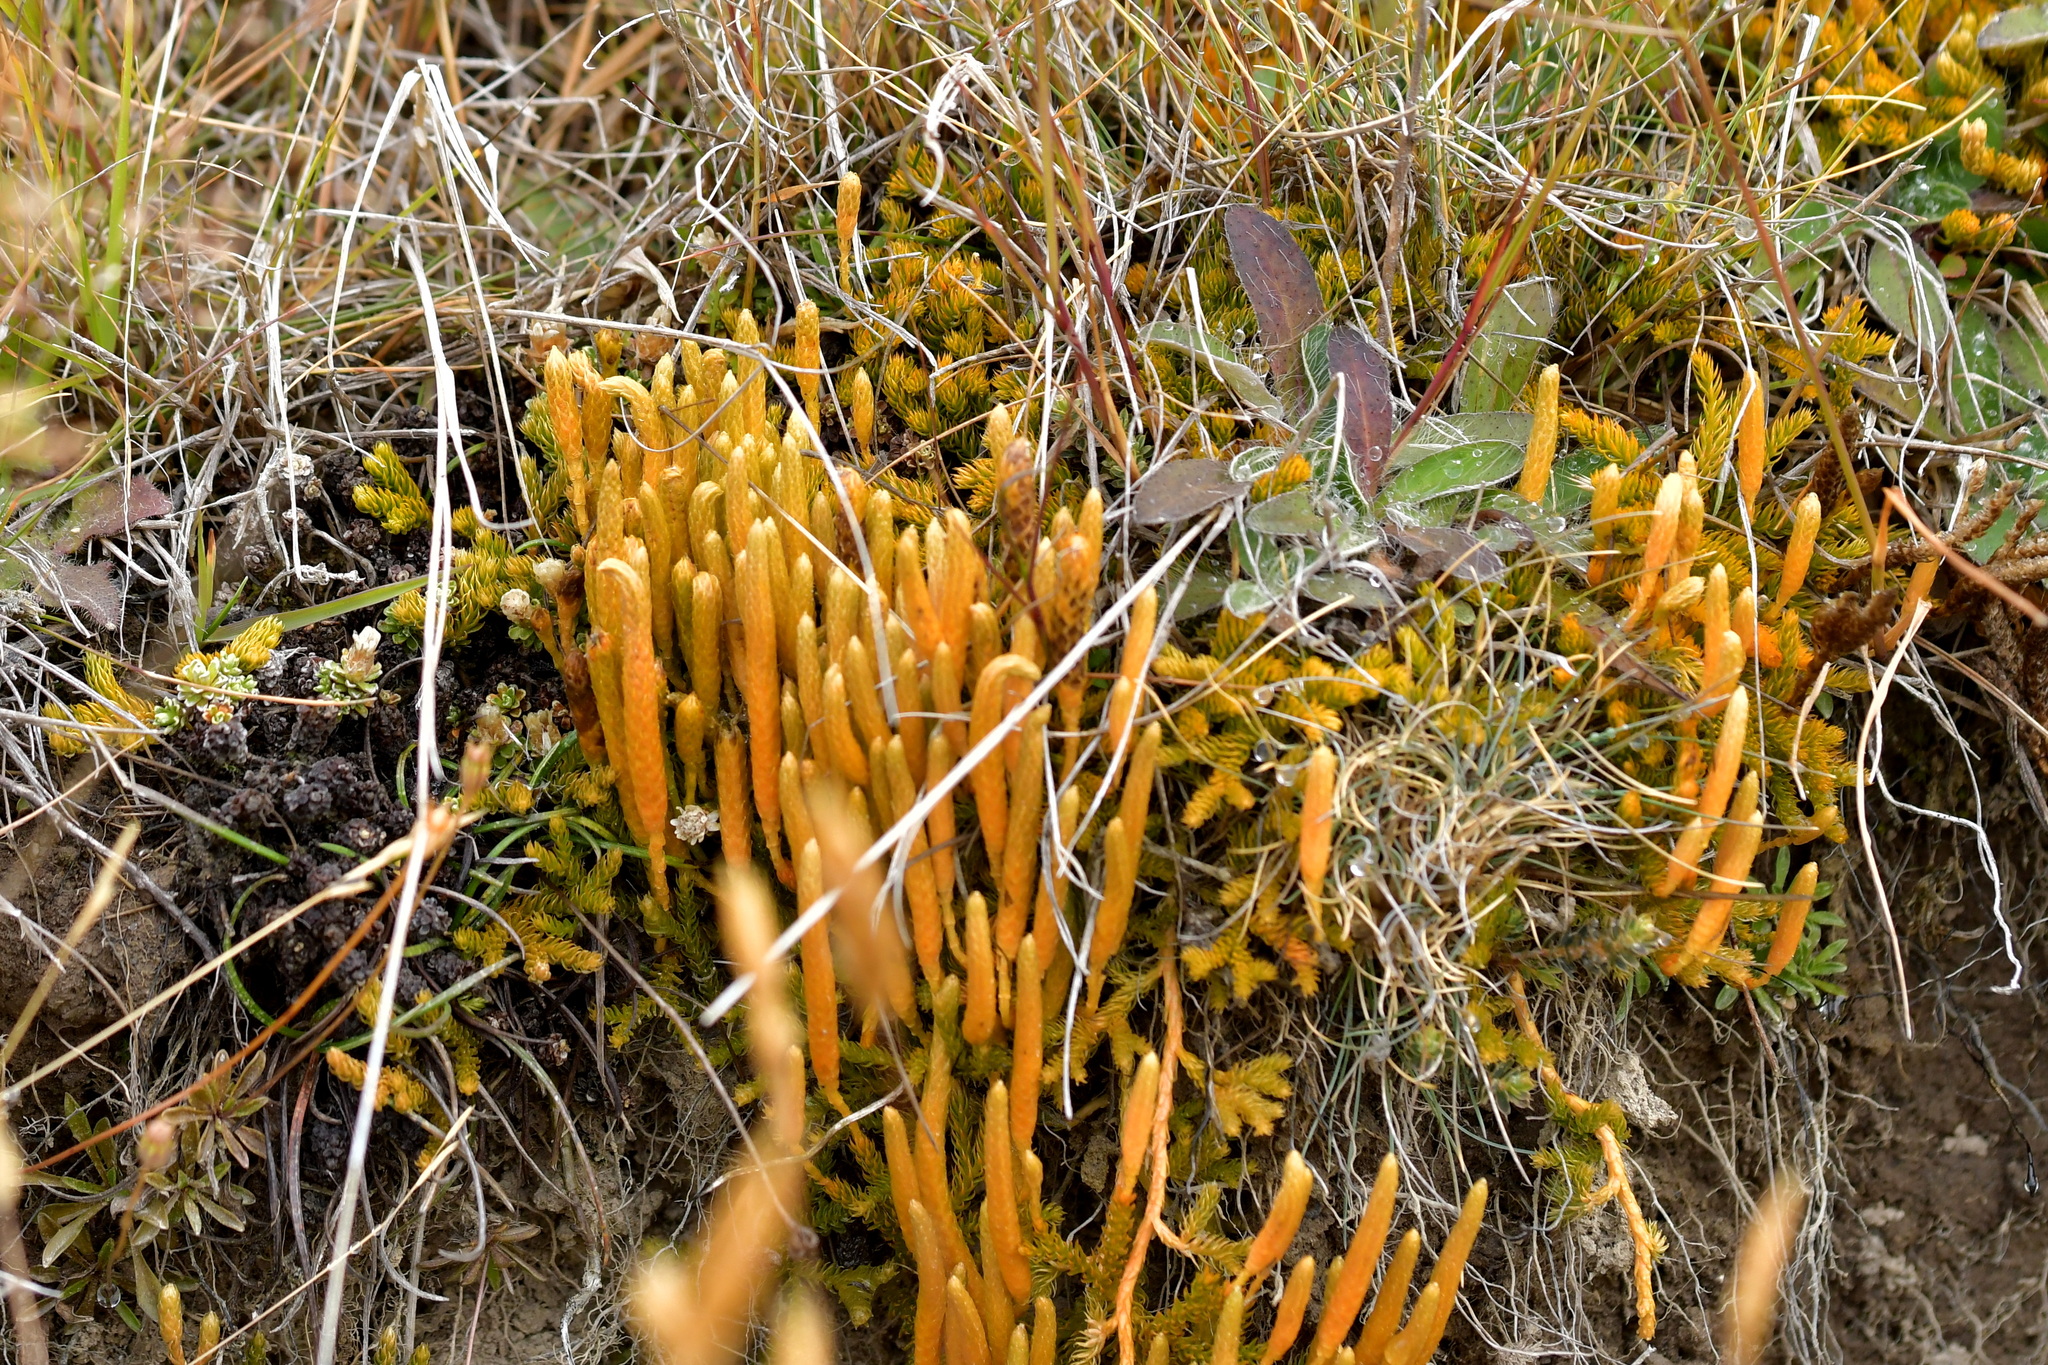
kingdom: Plantae
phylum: Tracheophyta
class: Lycopodiopsida
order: Lycopodiales
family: Lycopodiaceae
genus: Austrolycopodium
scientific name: Austrolycopodium fastigiatum
